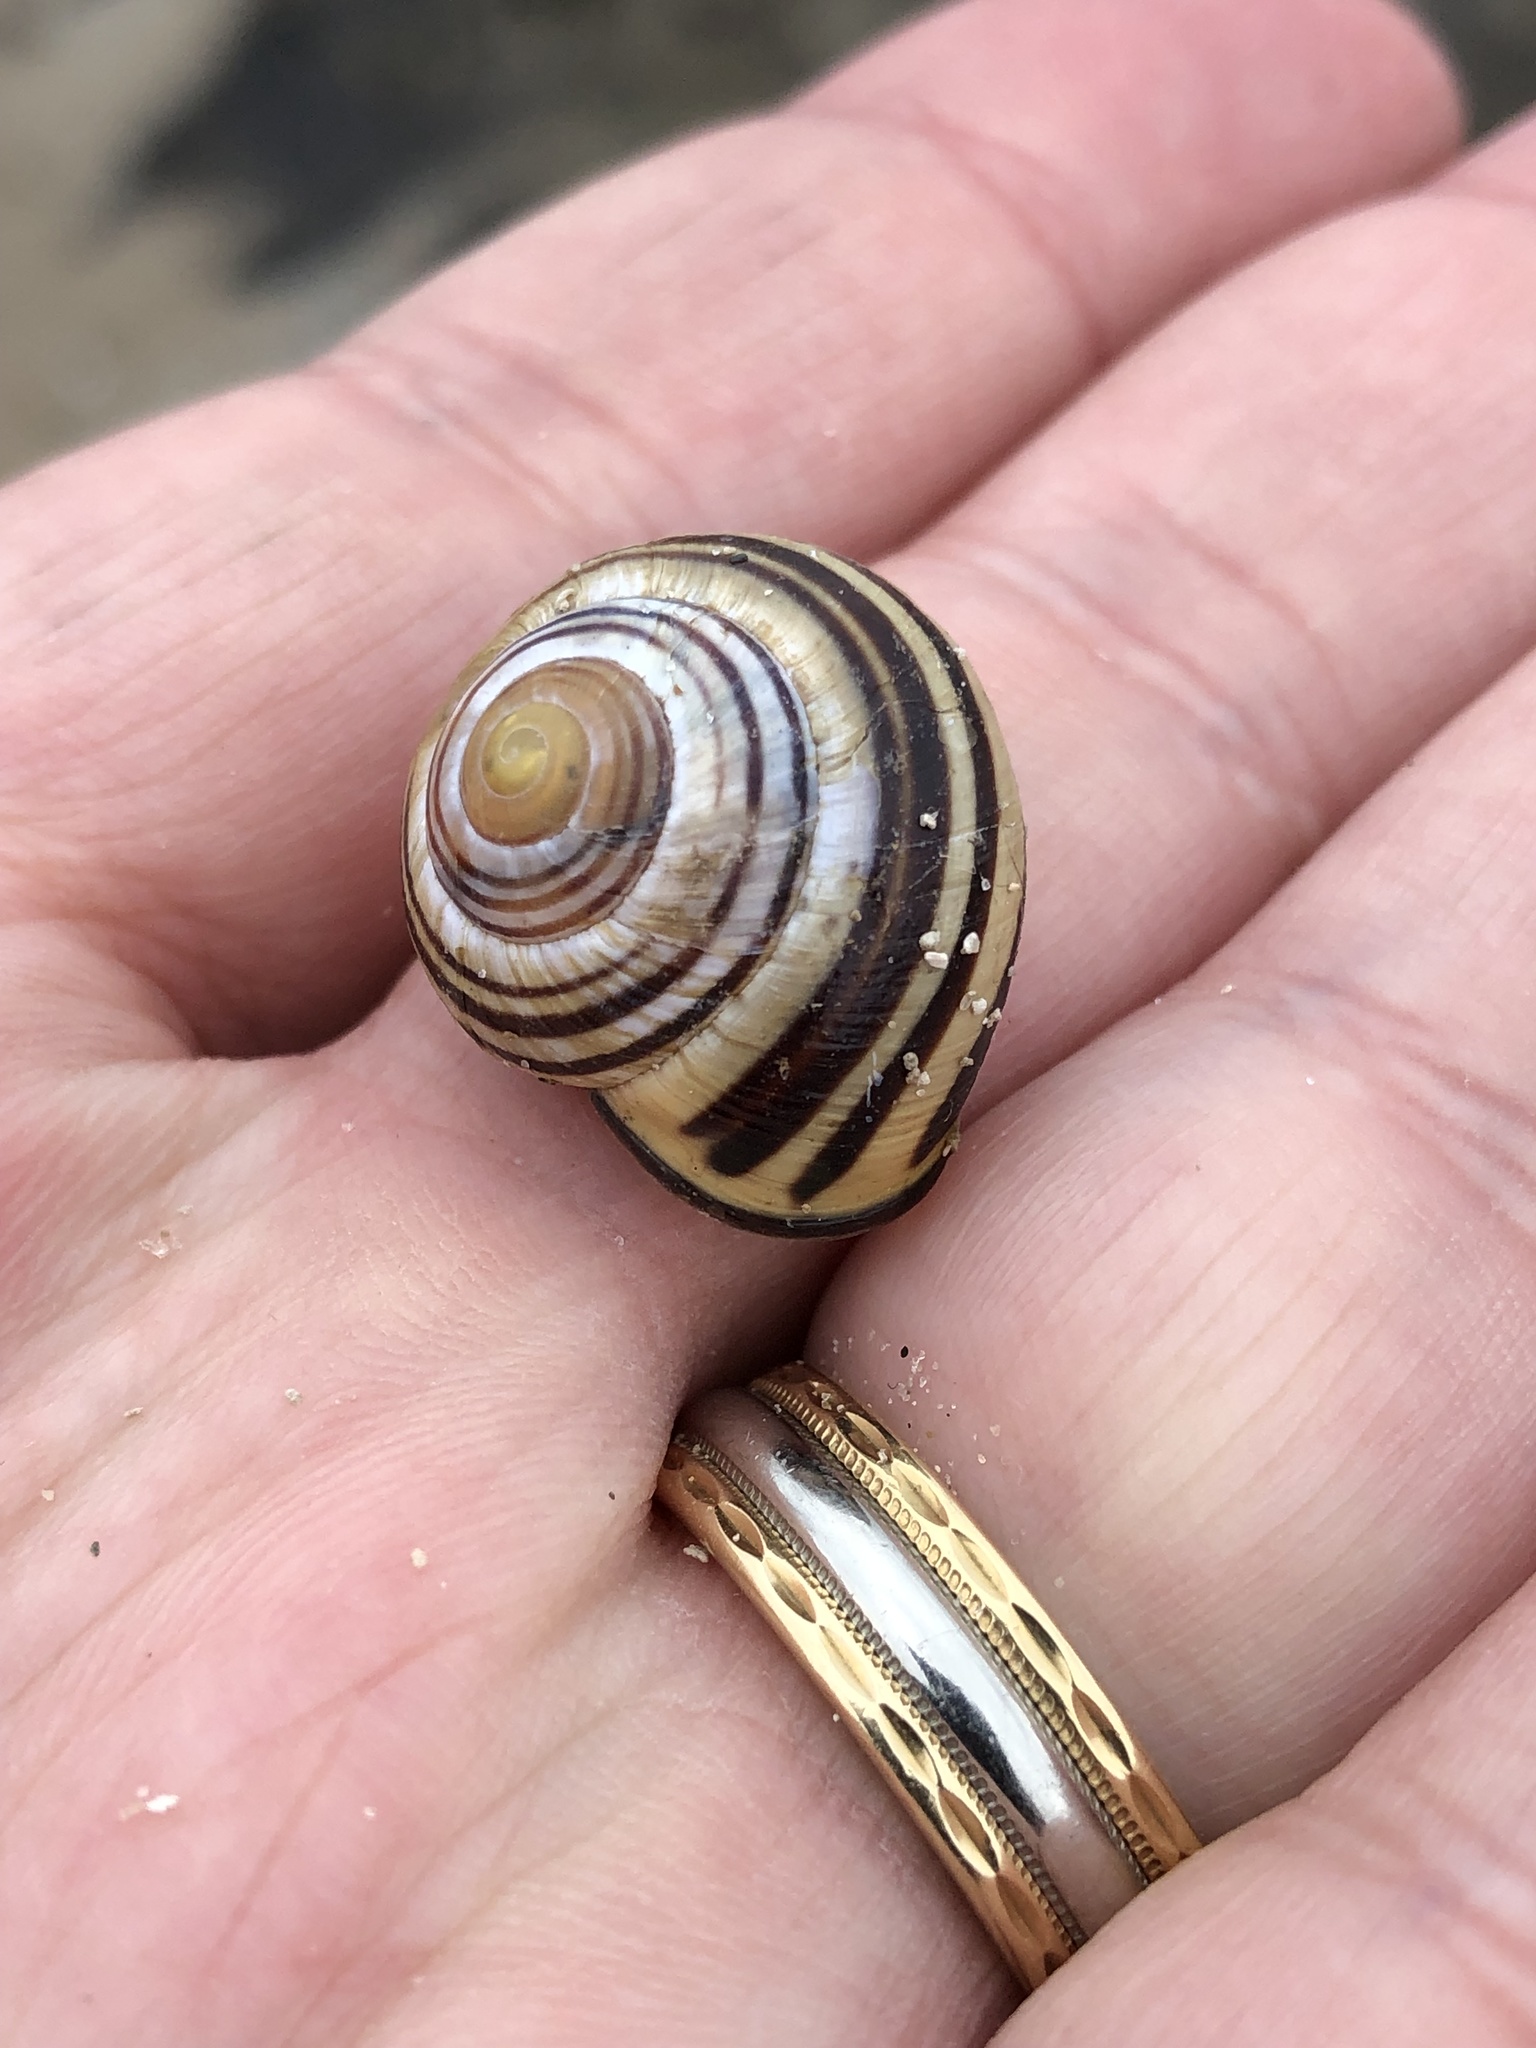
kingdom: Animalia
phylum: Mollusca
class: Gastropoda
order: Stylommatophora
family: Helicidae
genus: Cepaea
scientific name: Cepaea nemoralis
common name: Grovesnail
